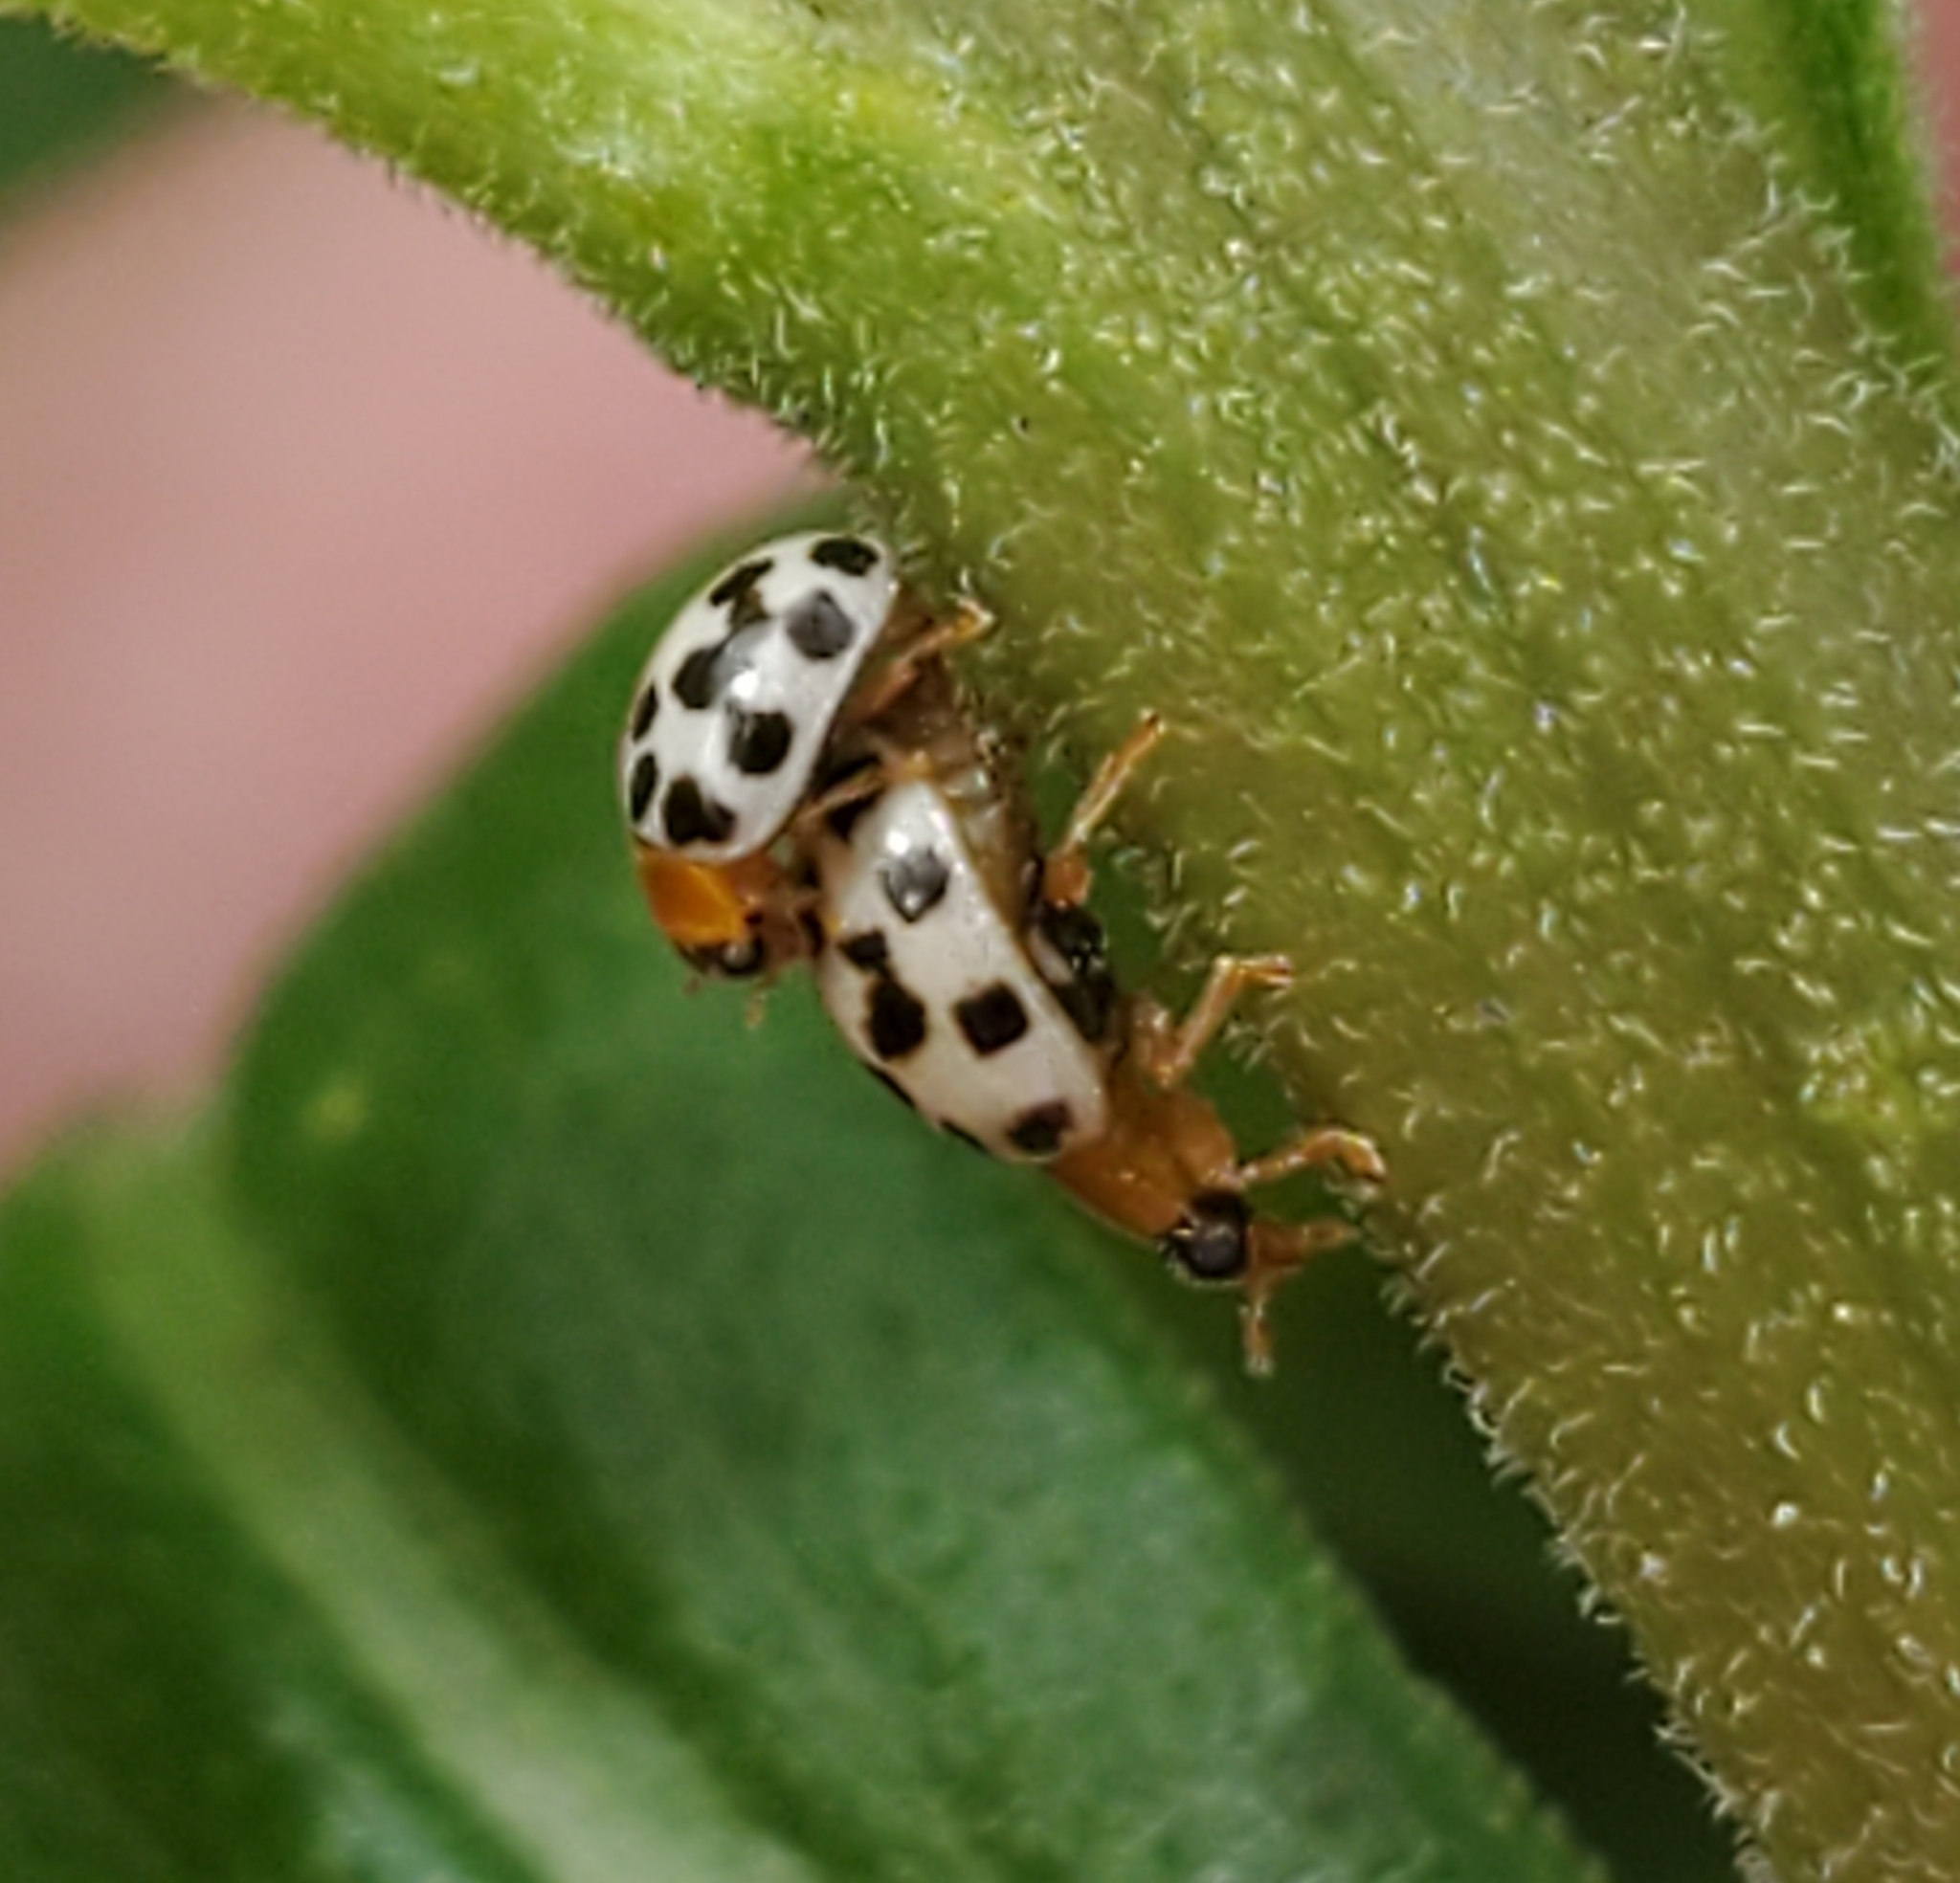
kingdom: Animalia
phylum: Arthropoda
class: Insecta
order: Coleoptera
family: Coccinellidae
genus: Psyllobora
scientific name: Psyllobora parvinotata
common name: Small-spotted psyllobora
